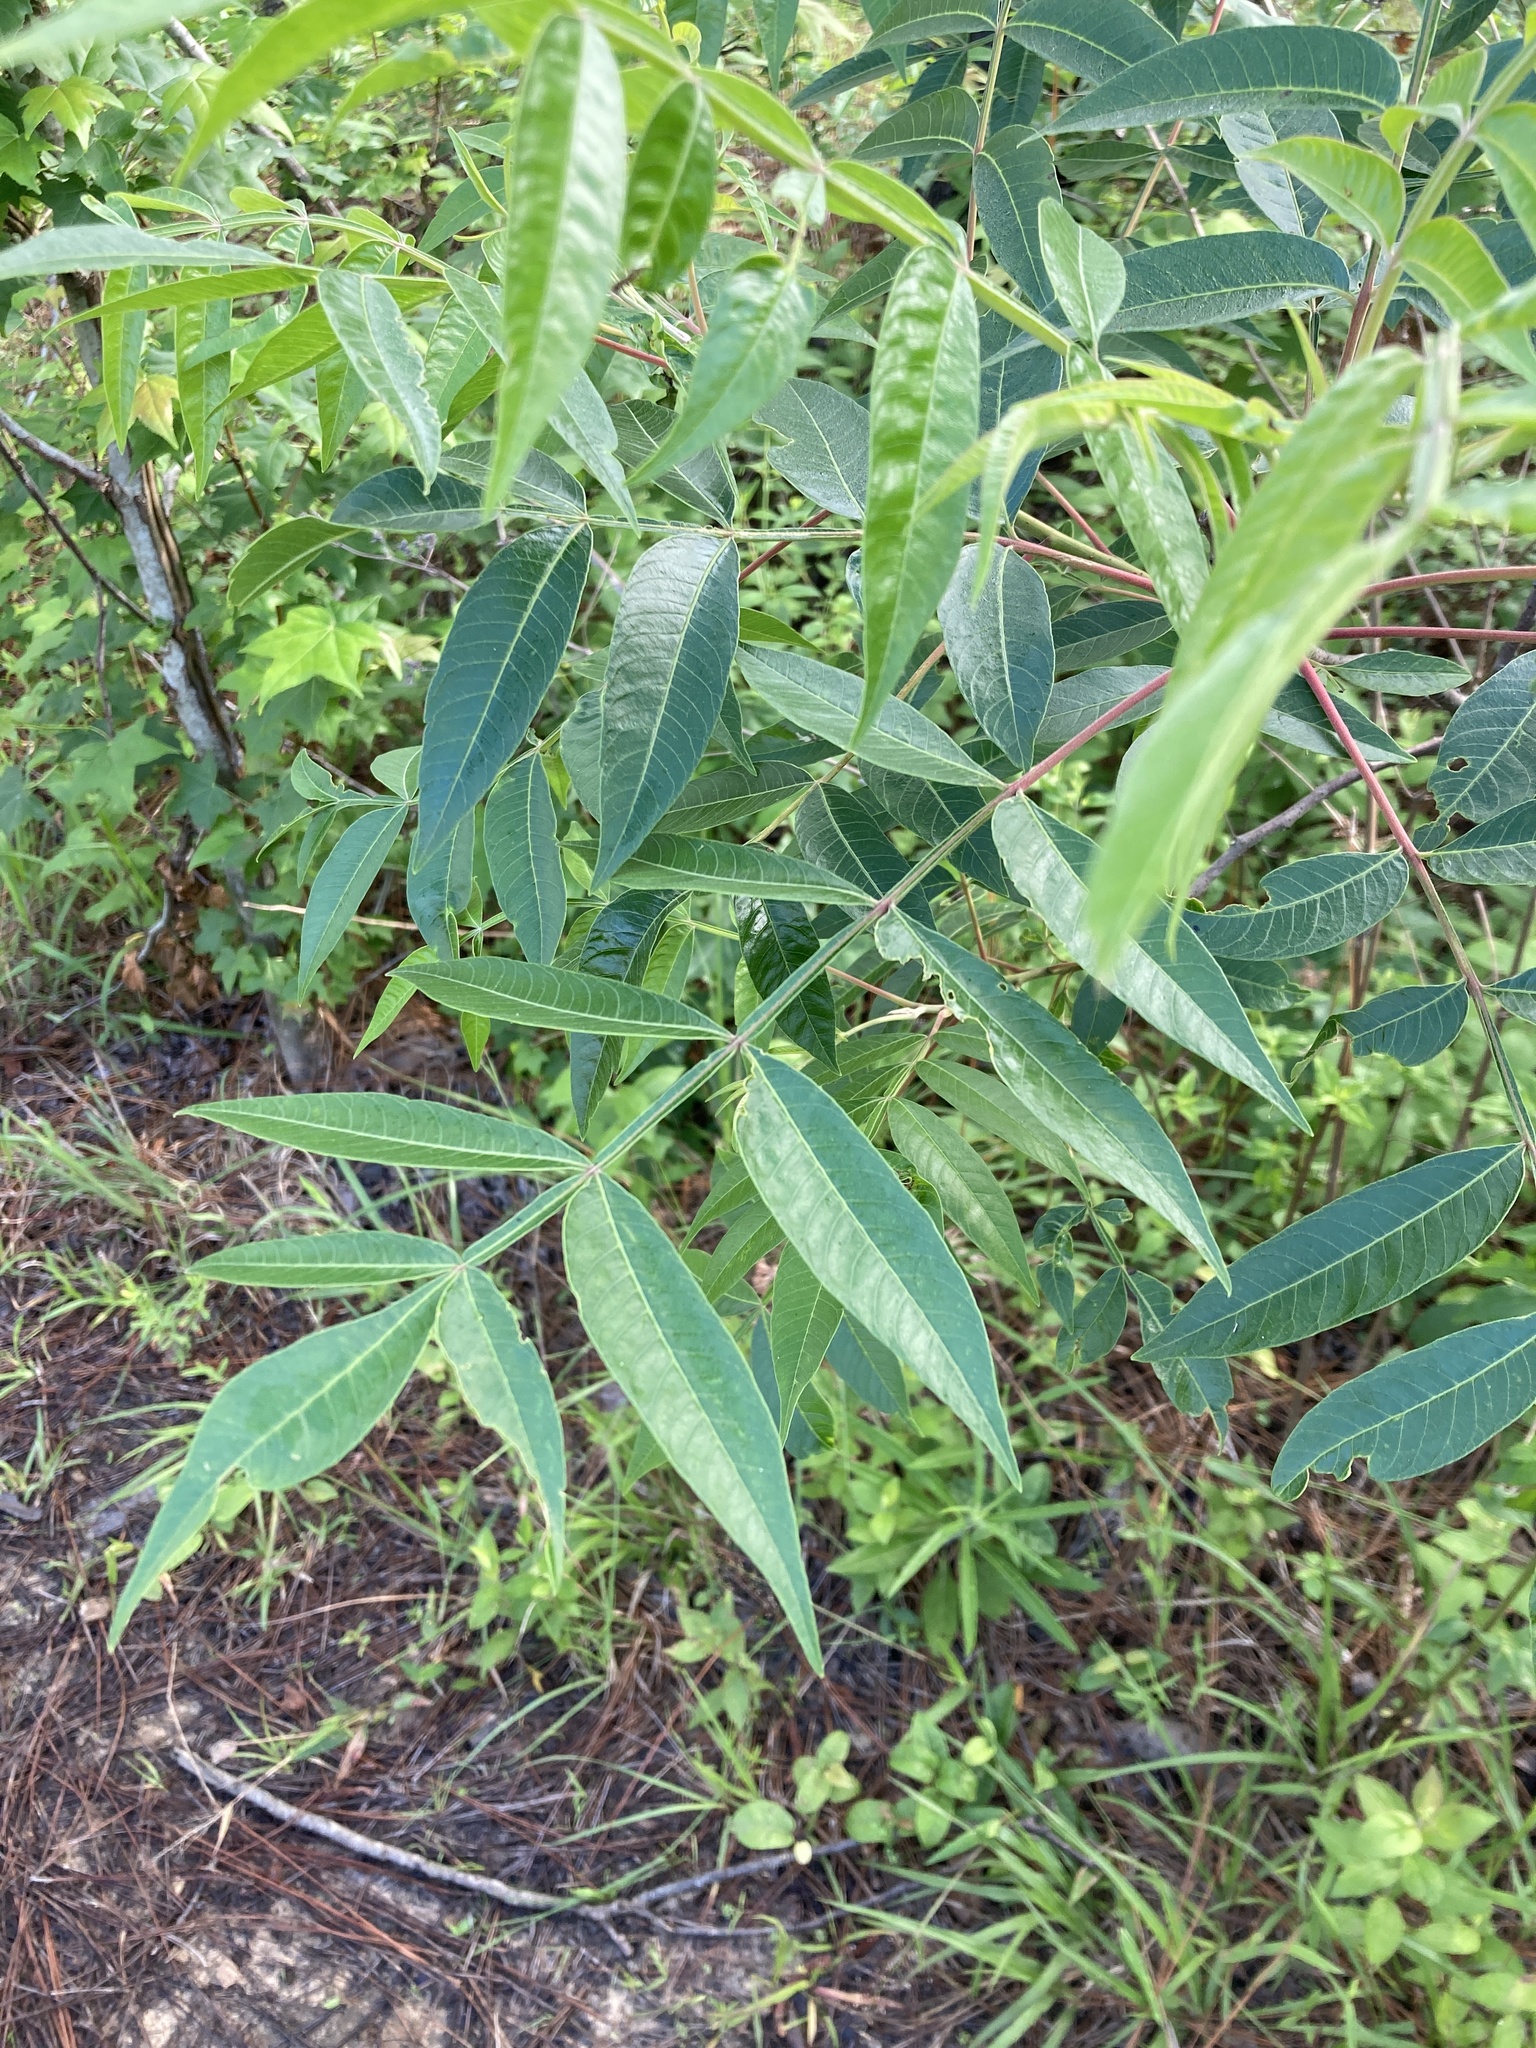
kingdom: Plantae
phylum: Tracheophyta
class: Magnoliopsida
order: Sapindales
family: Anacardiaceae
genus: Rhus
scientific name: Rhus copallina
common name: Shining sumac
